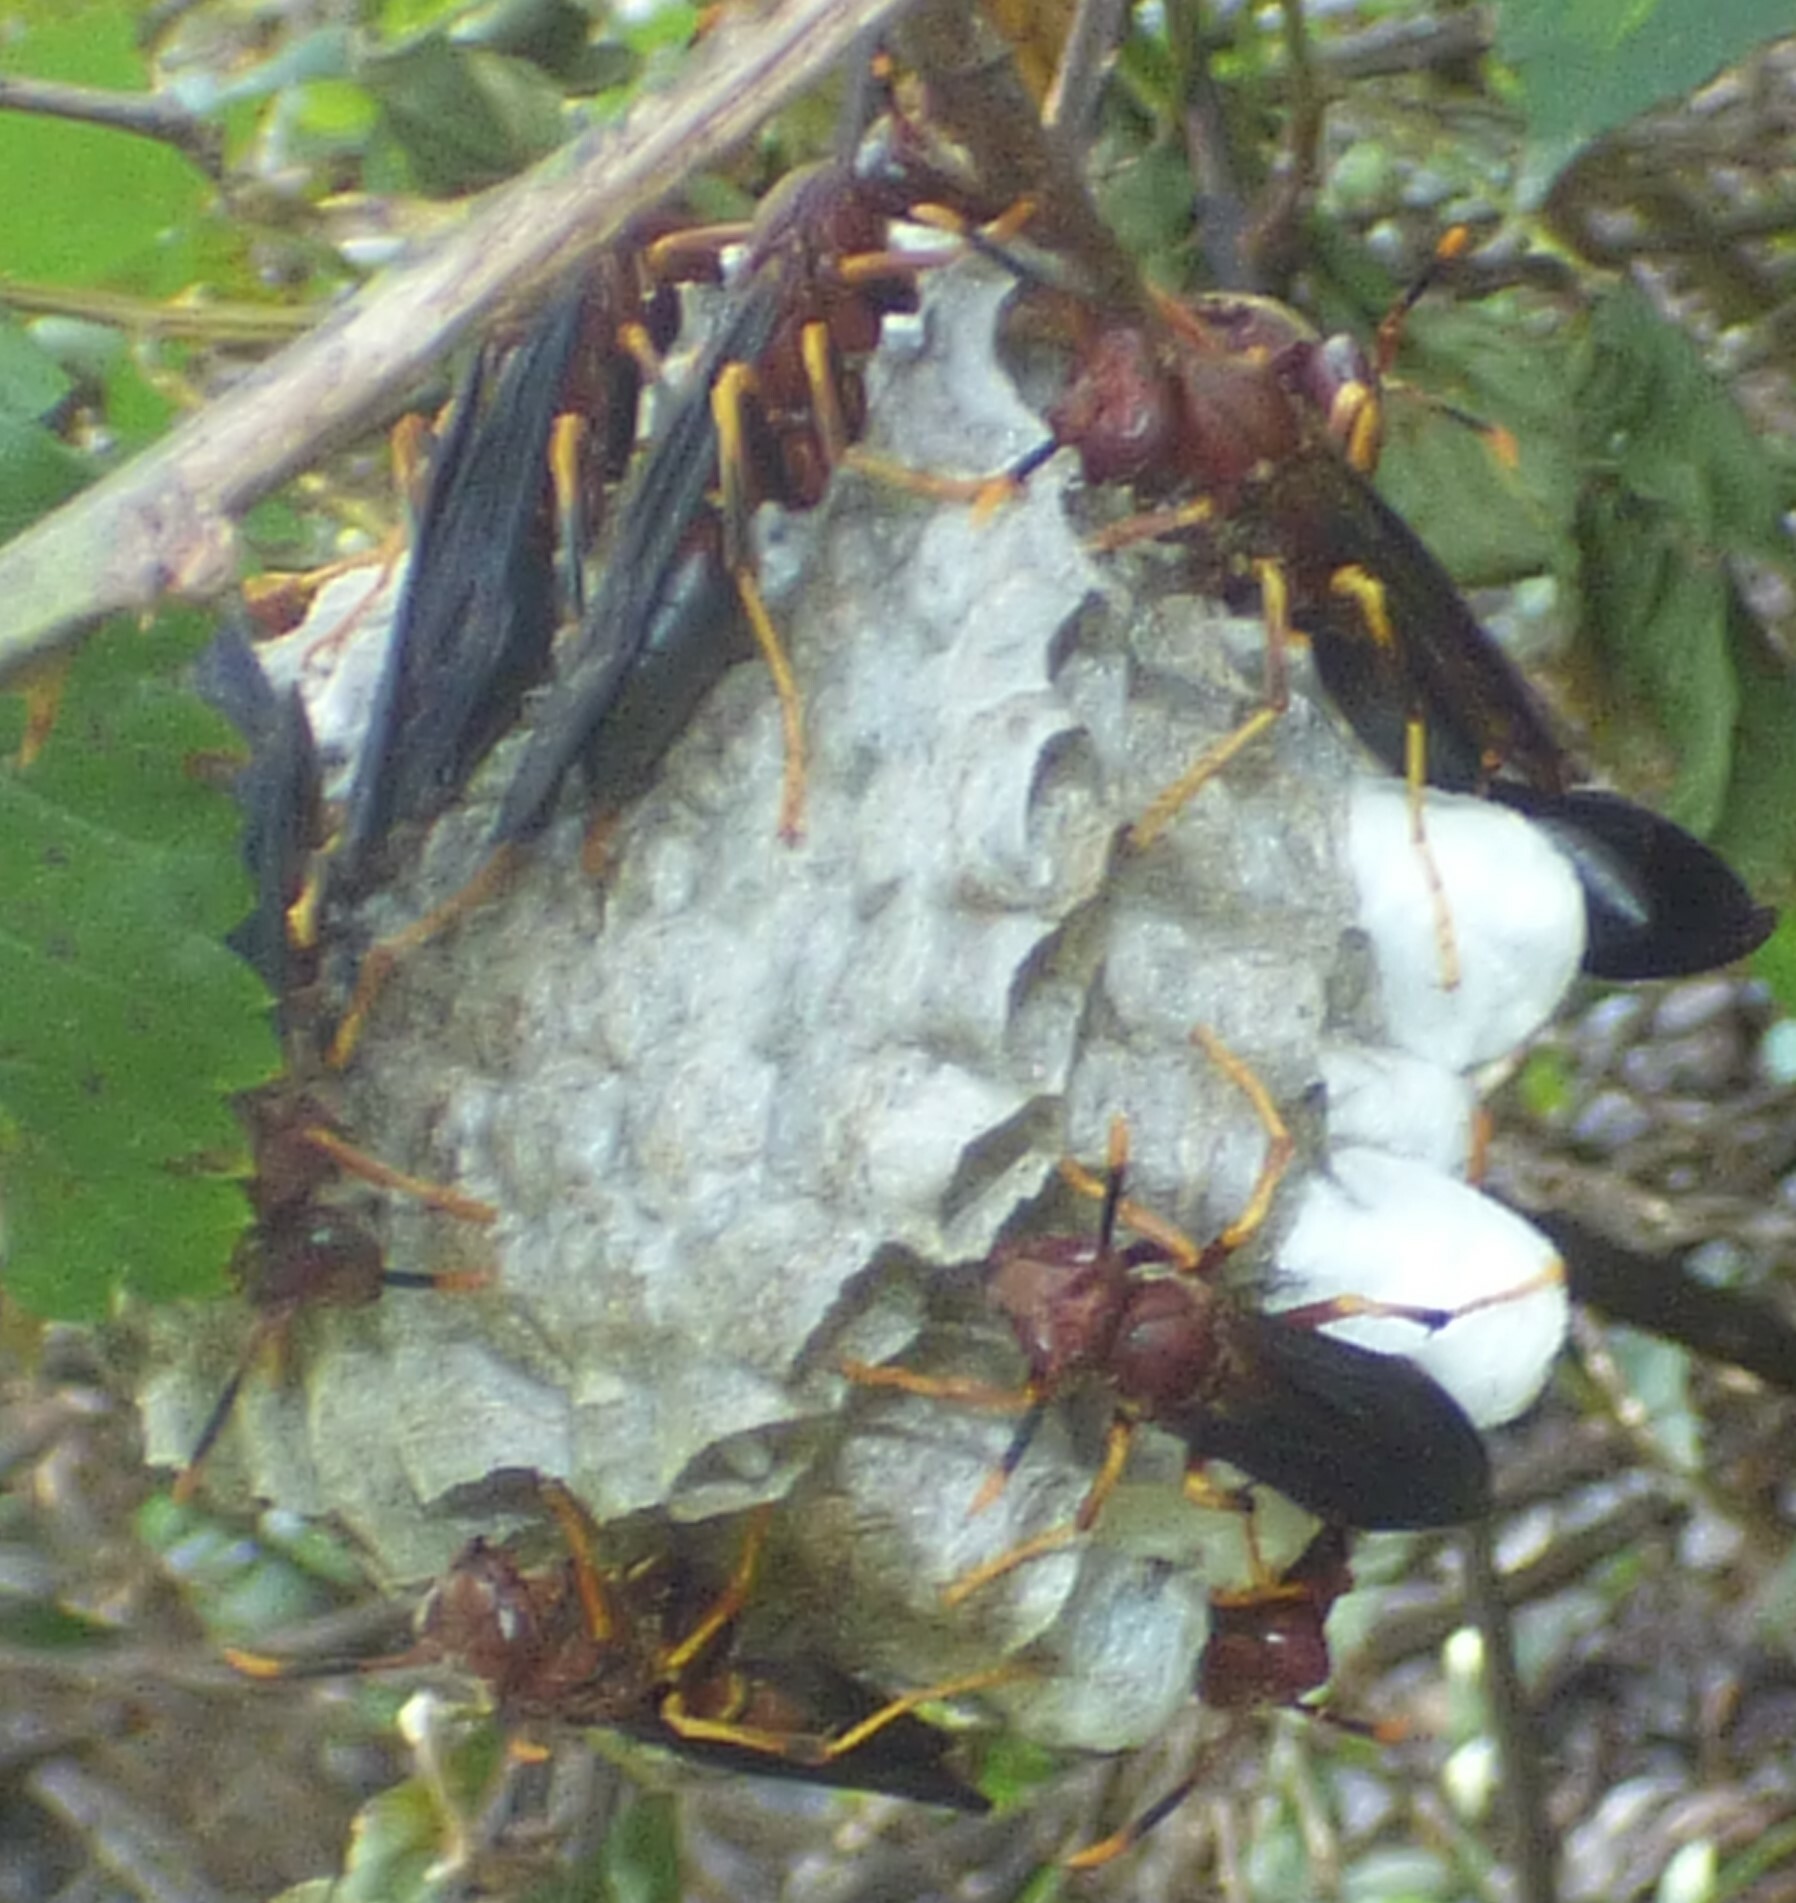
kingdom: Animalia
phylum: Arthropoda
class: Insecta
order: Hymenoptera
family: Eumenidae
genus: Polistes
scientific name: Polistes annularis
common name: Ringed paper wasp
